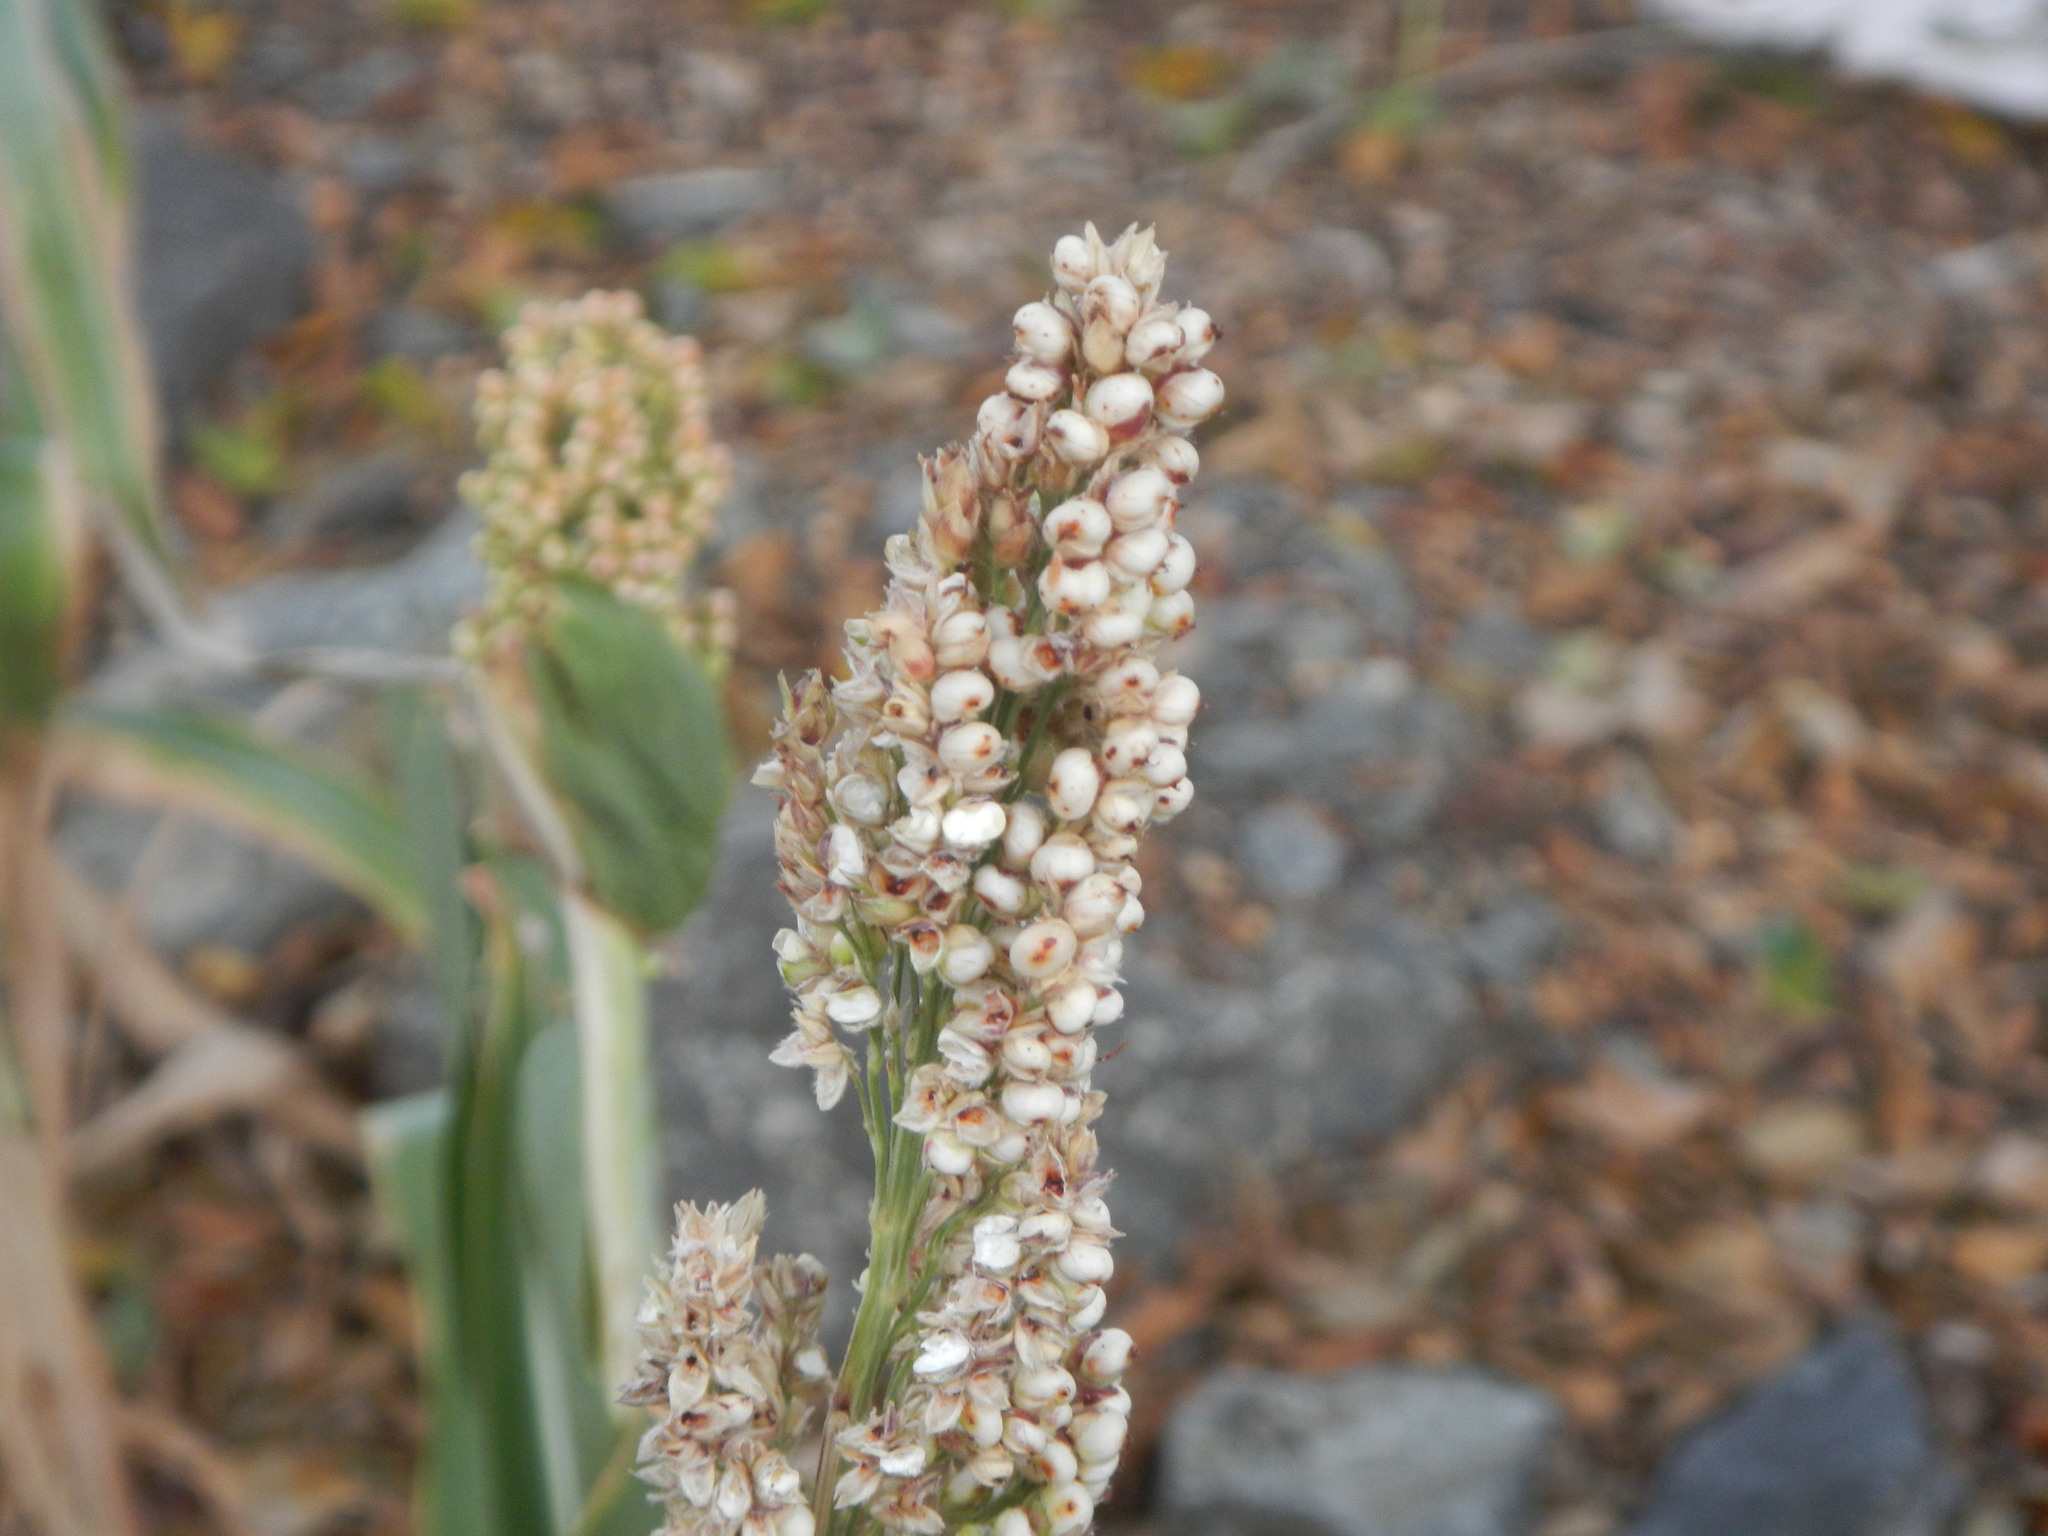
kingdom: Plantae
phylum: Tracheophyta
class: Liliopsida
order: Poales
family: Poaceae
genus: Sorghum
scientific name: Sorghum bicolor
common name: Sorghum
